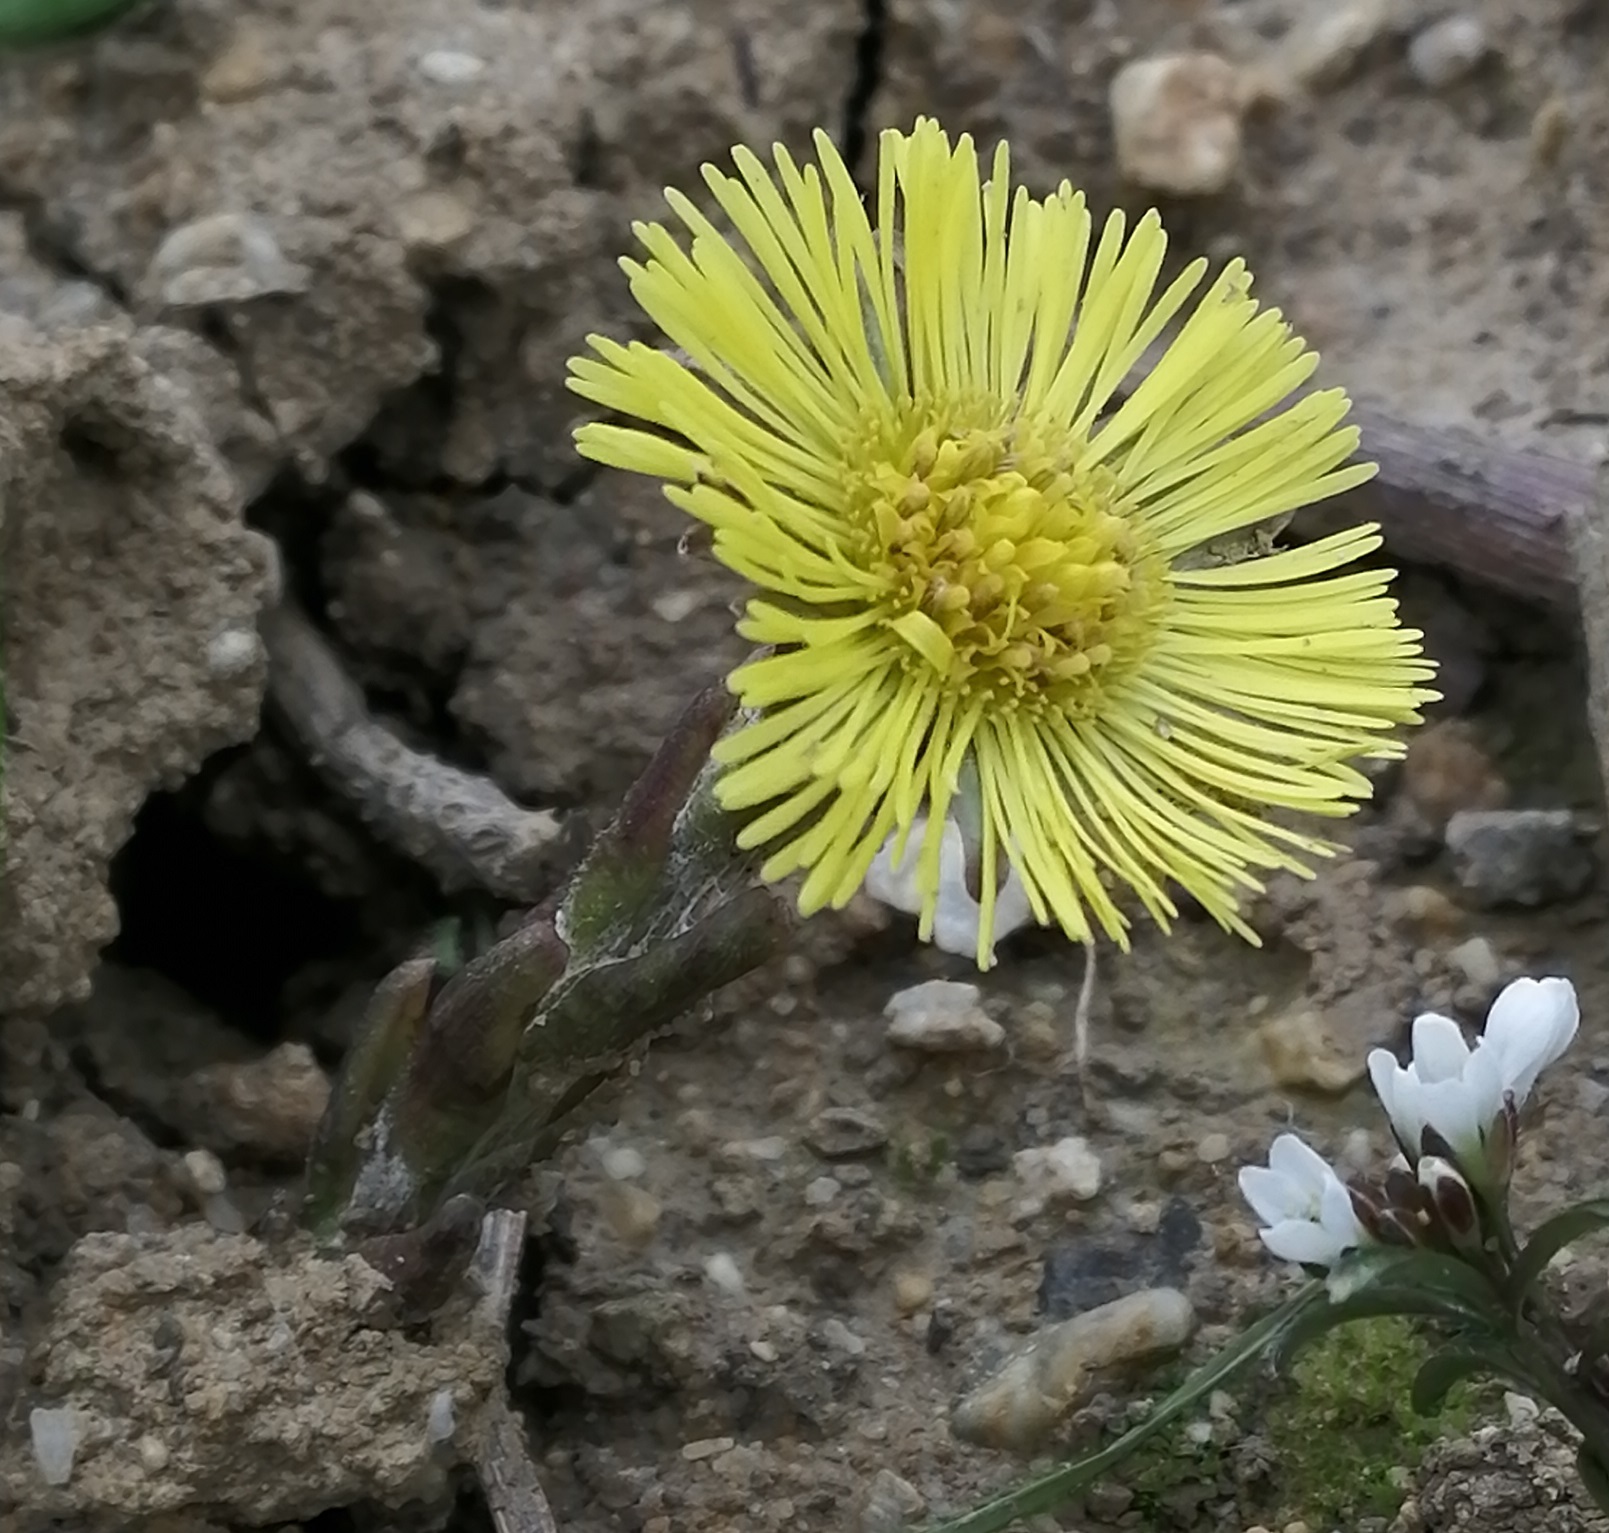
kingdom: Plantae
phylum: Tracheophyta
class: Magnoliopsida
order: Asterales
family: Asteraceae
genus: Tussilago
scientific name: Tussilago farfara
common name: Coltsfoot
